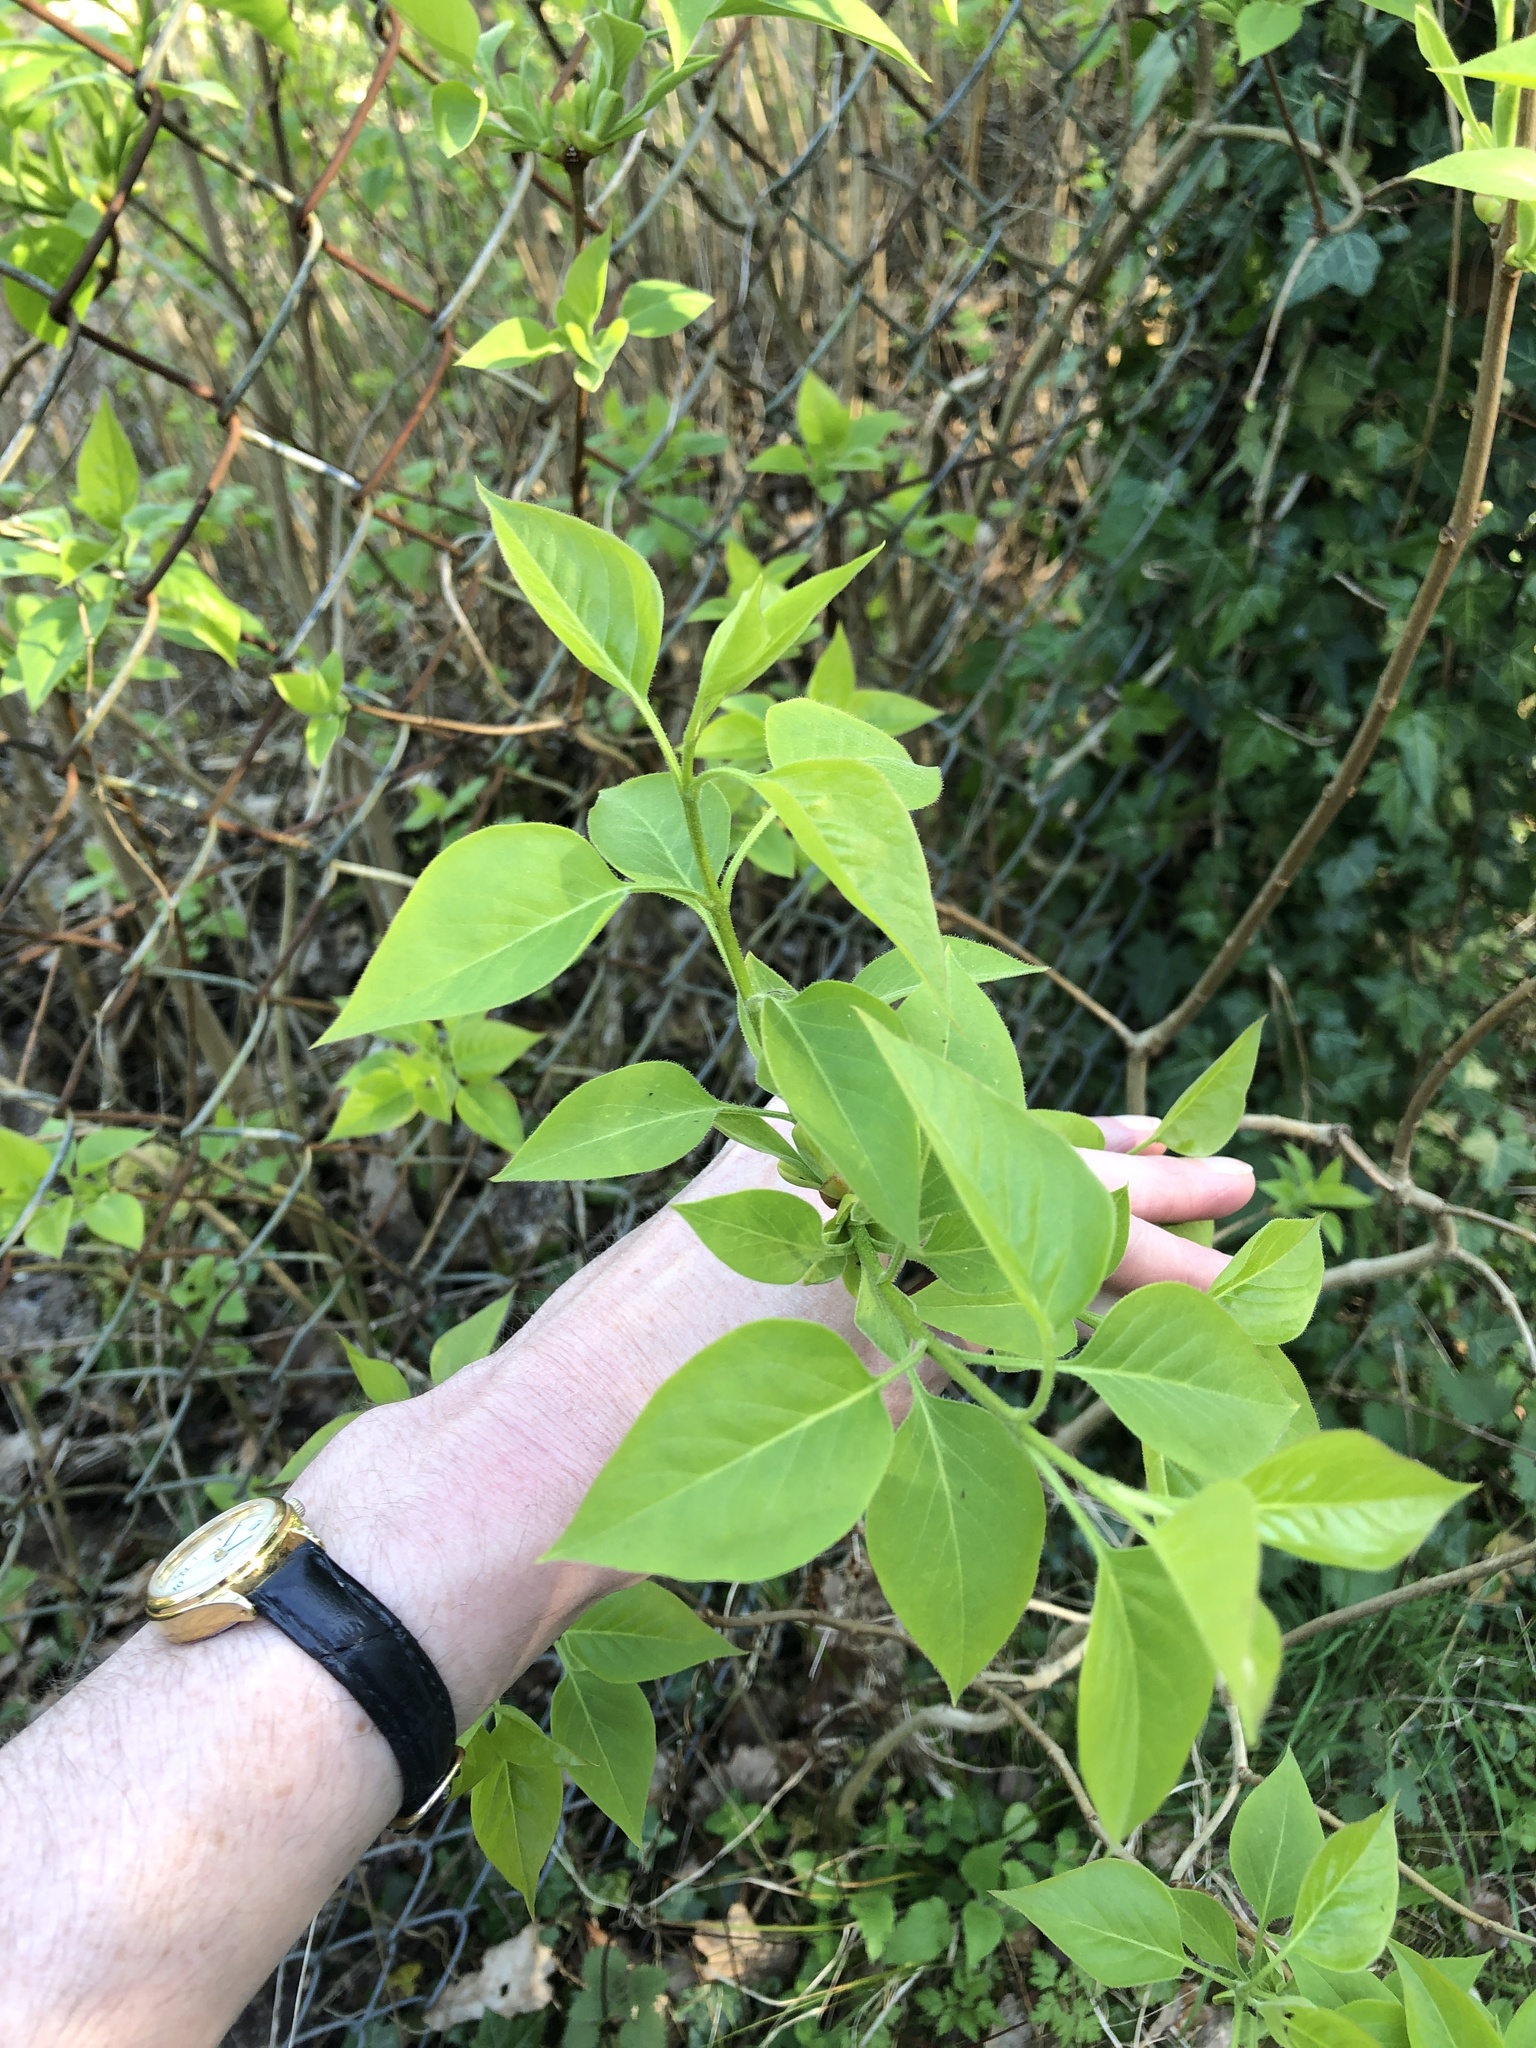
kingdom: Plantae
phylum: Tracheophyta
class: Magnoliopsida
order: Lamiales
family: Oleaceae
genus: Syringa
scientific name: Syringa vulgaris
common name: Common lilac
